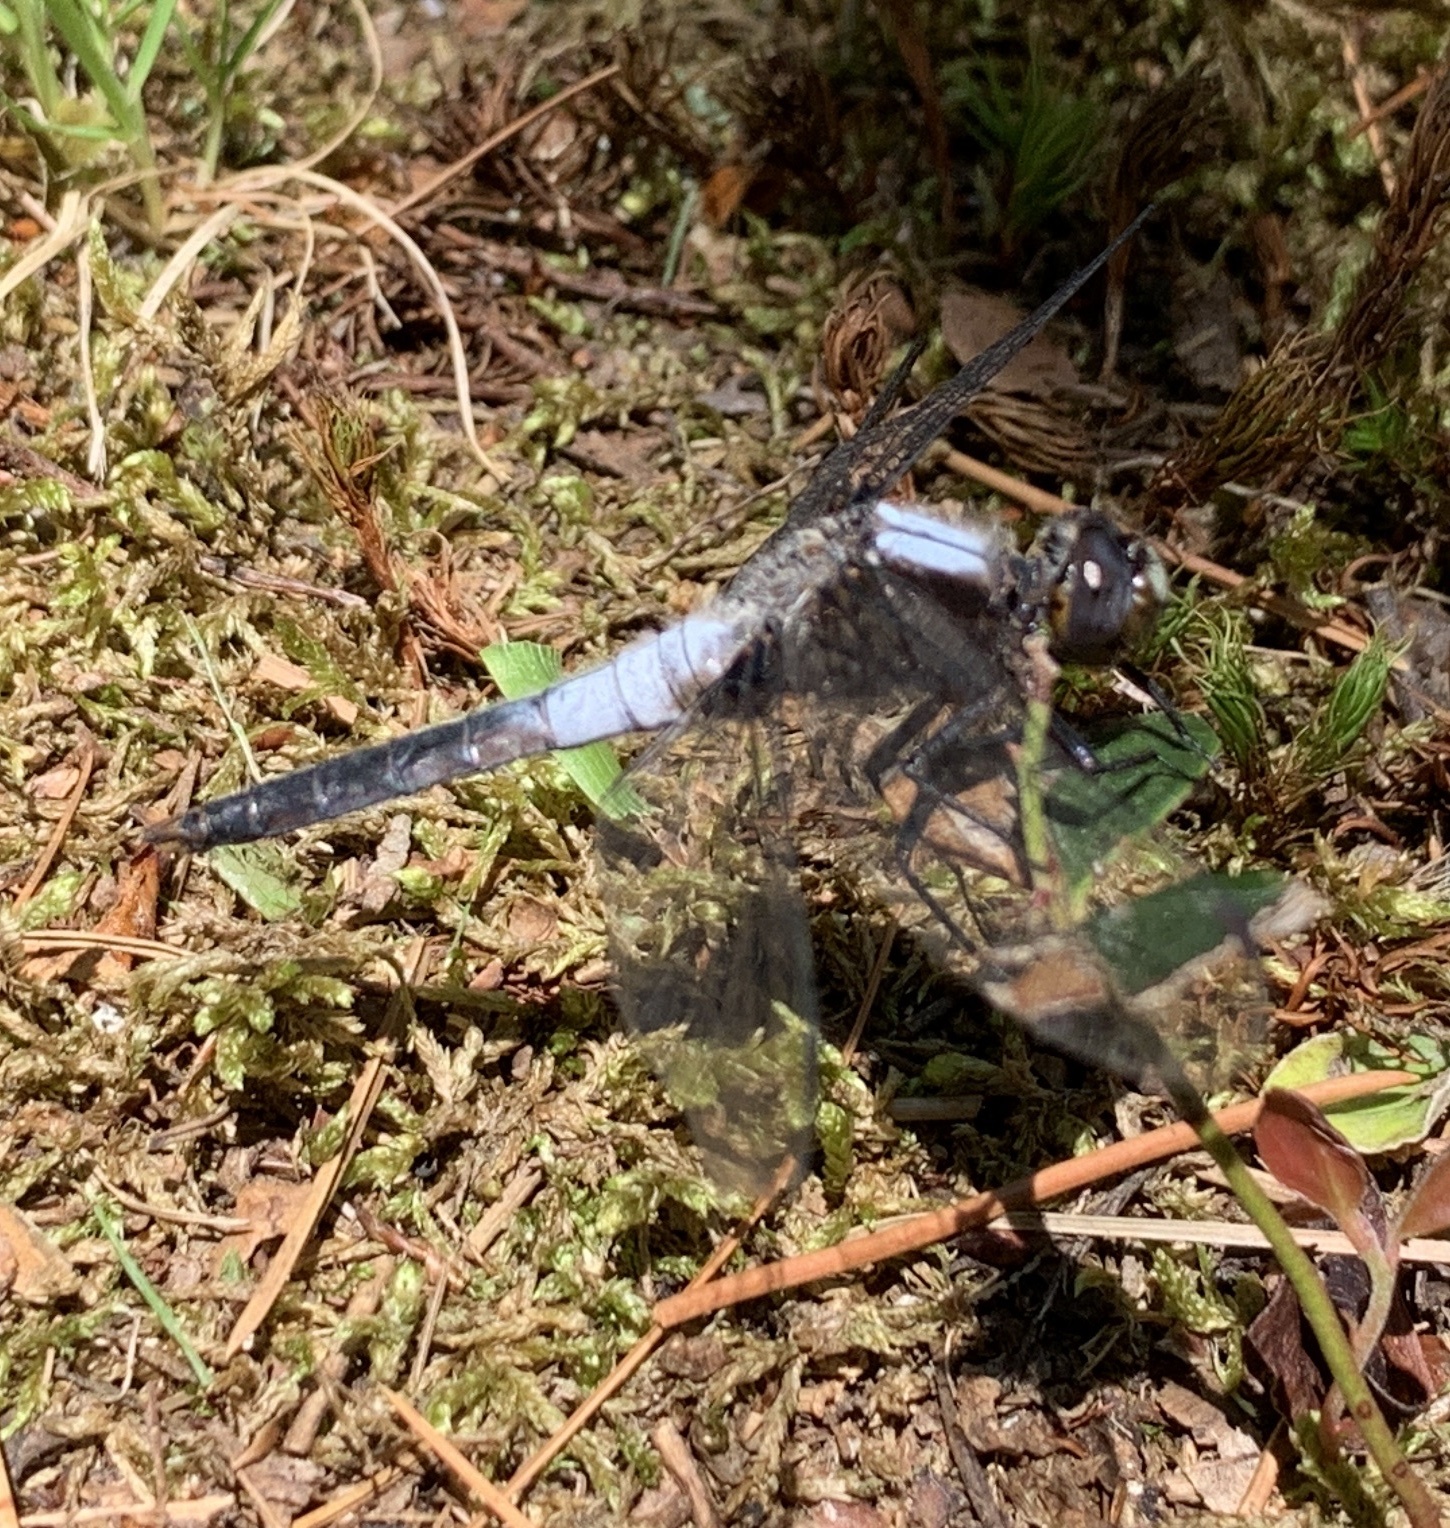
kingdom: Animalia
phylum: Arthropoda
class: Insecta
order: Odonata
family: Libellulidae
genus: Ladona
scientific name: Ladona julia
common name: Chalk-fronted corporal
